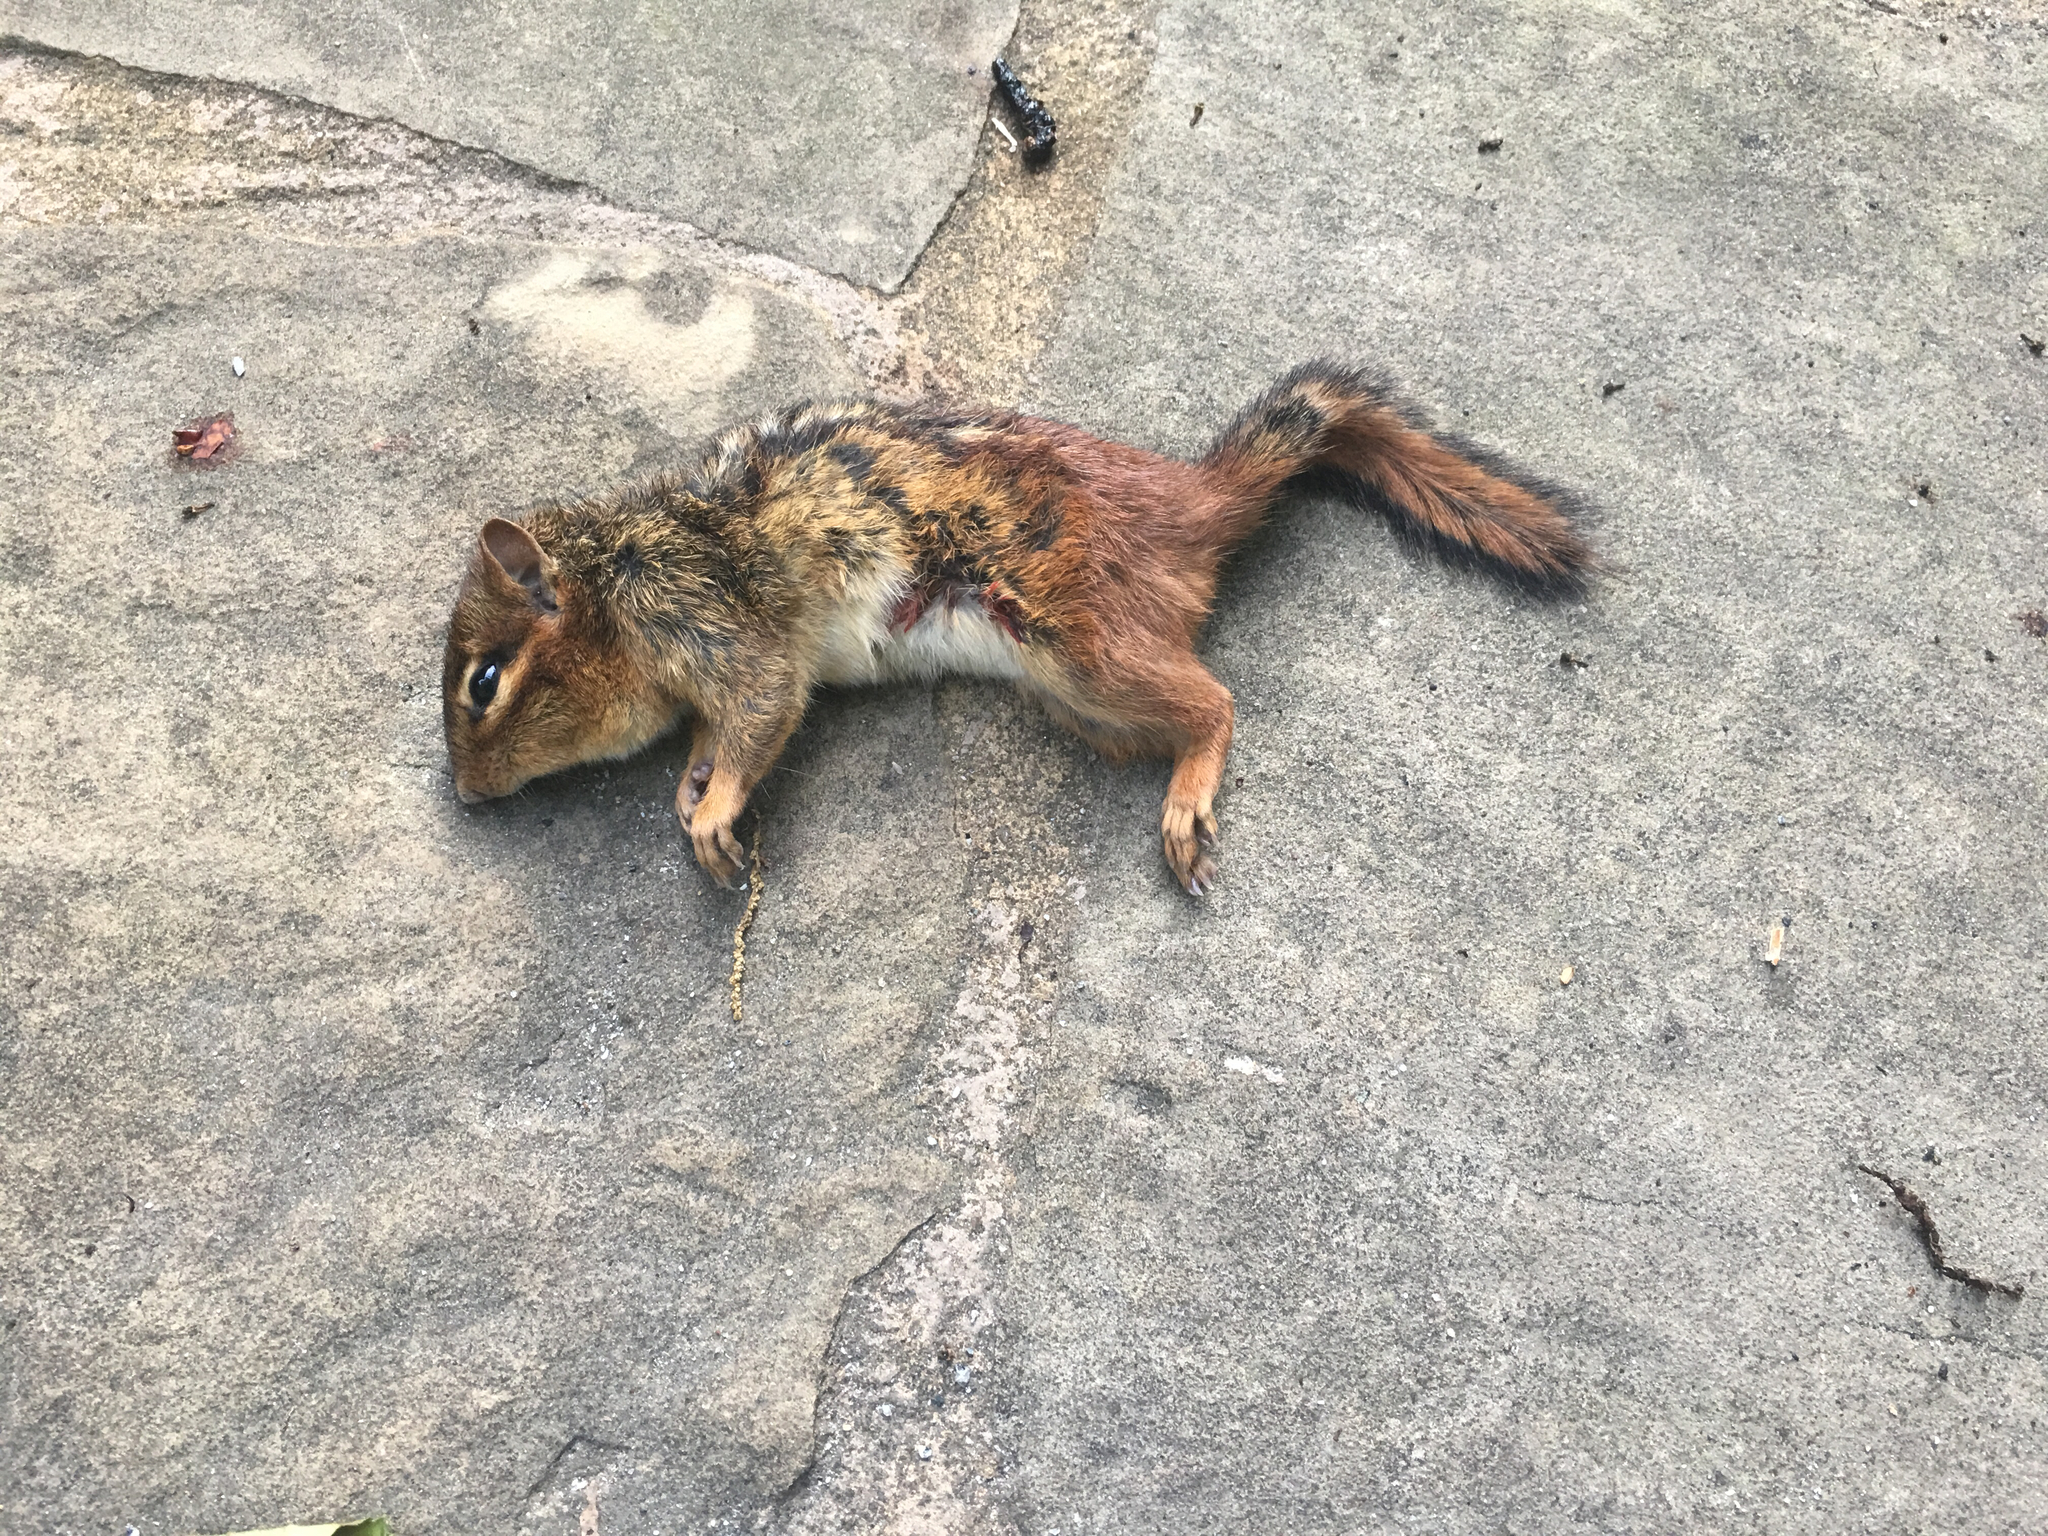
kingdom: Animalia
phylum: Chordata
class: Mammalia
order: Rodentia
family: Sciuridae
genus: Tamias
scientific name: Tamias striatus
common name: Eastern chipmunk
